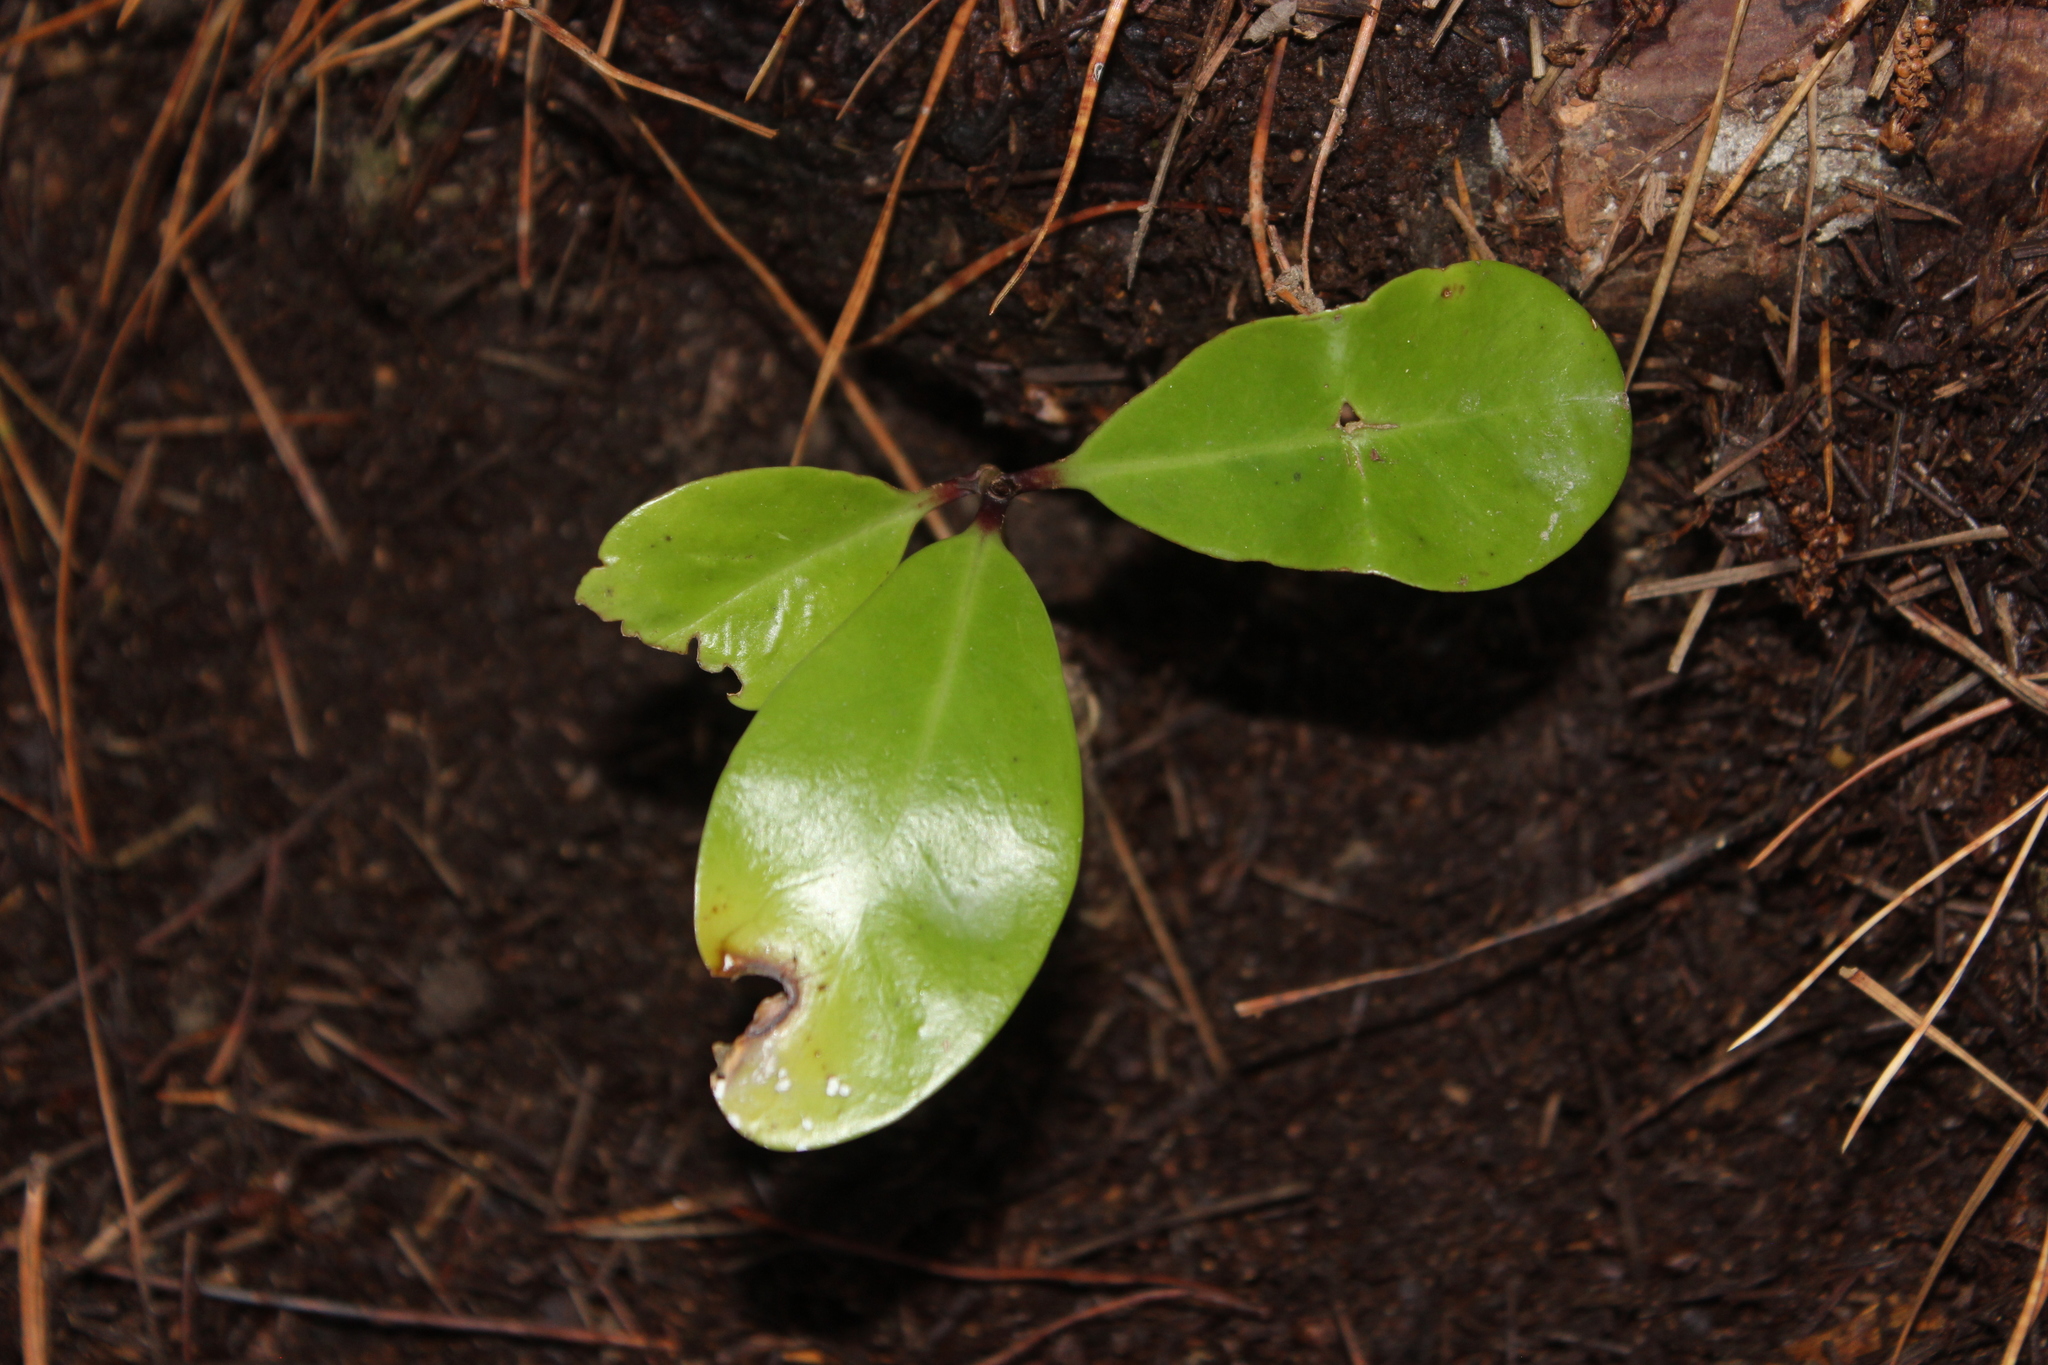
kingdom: Plantae
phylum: Tracheophyta
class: Magnoliopsida
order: Cucurbitales
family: Corynocarpaceae
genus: Corynocarpus
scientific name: Corynocarpus laevigatus
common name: New zealand laurel
